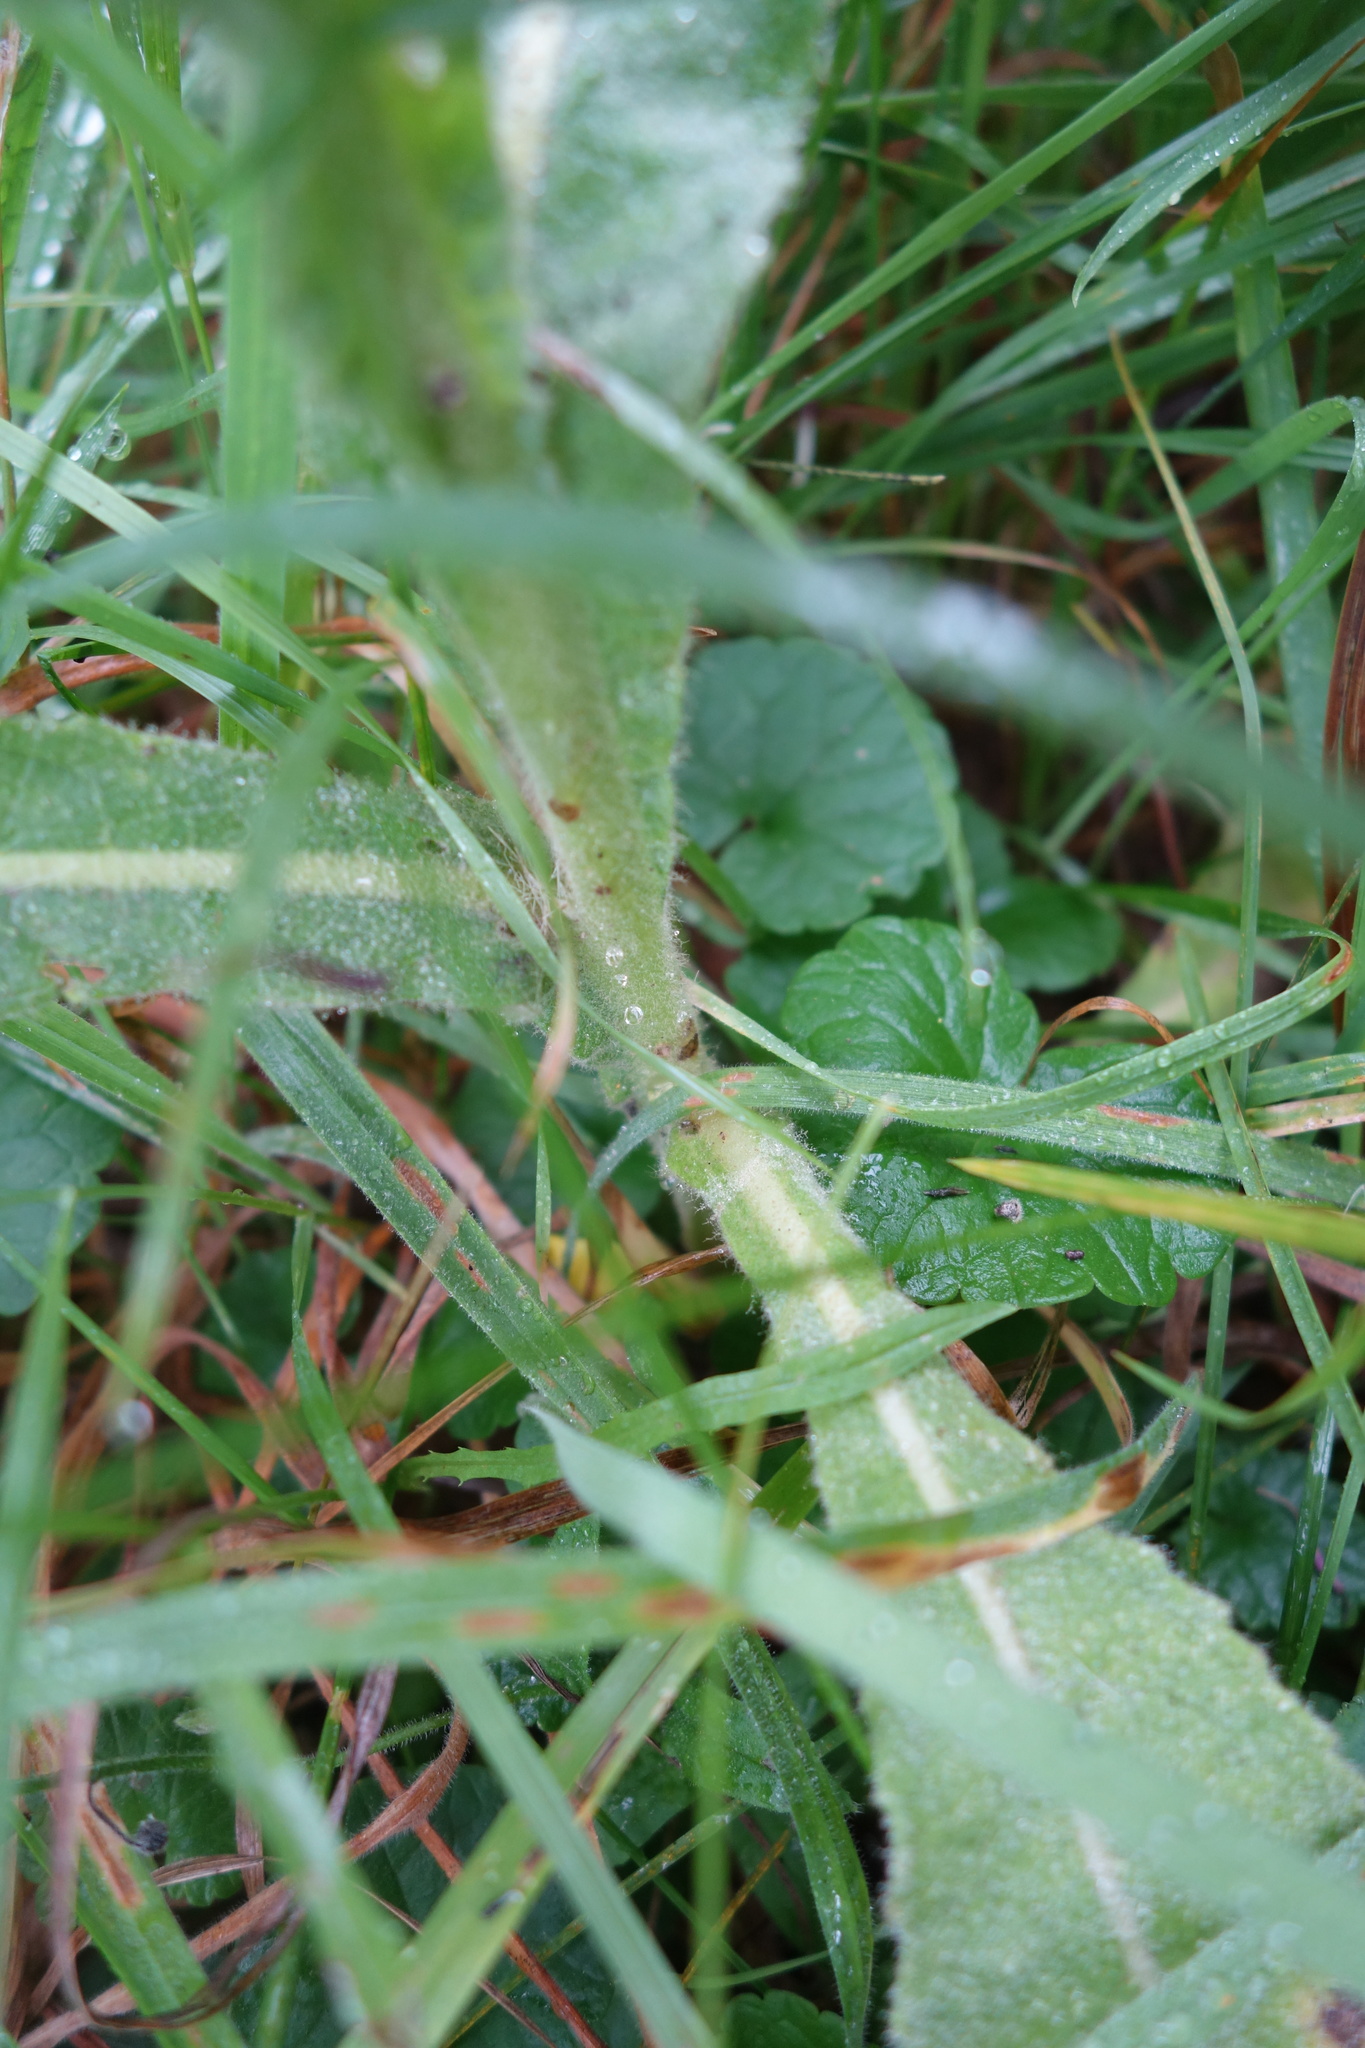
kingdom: Plantae
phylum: Tracheophyta
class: Magnoliopsida
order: Lamiales
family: Scrophulariaceae
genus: Verbascum
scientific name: Verbascum densiflorum
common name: Dense-flowered mullein
